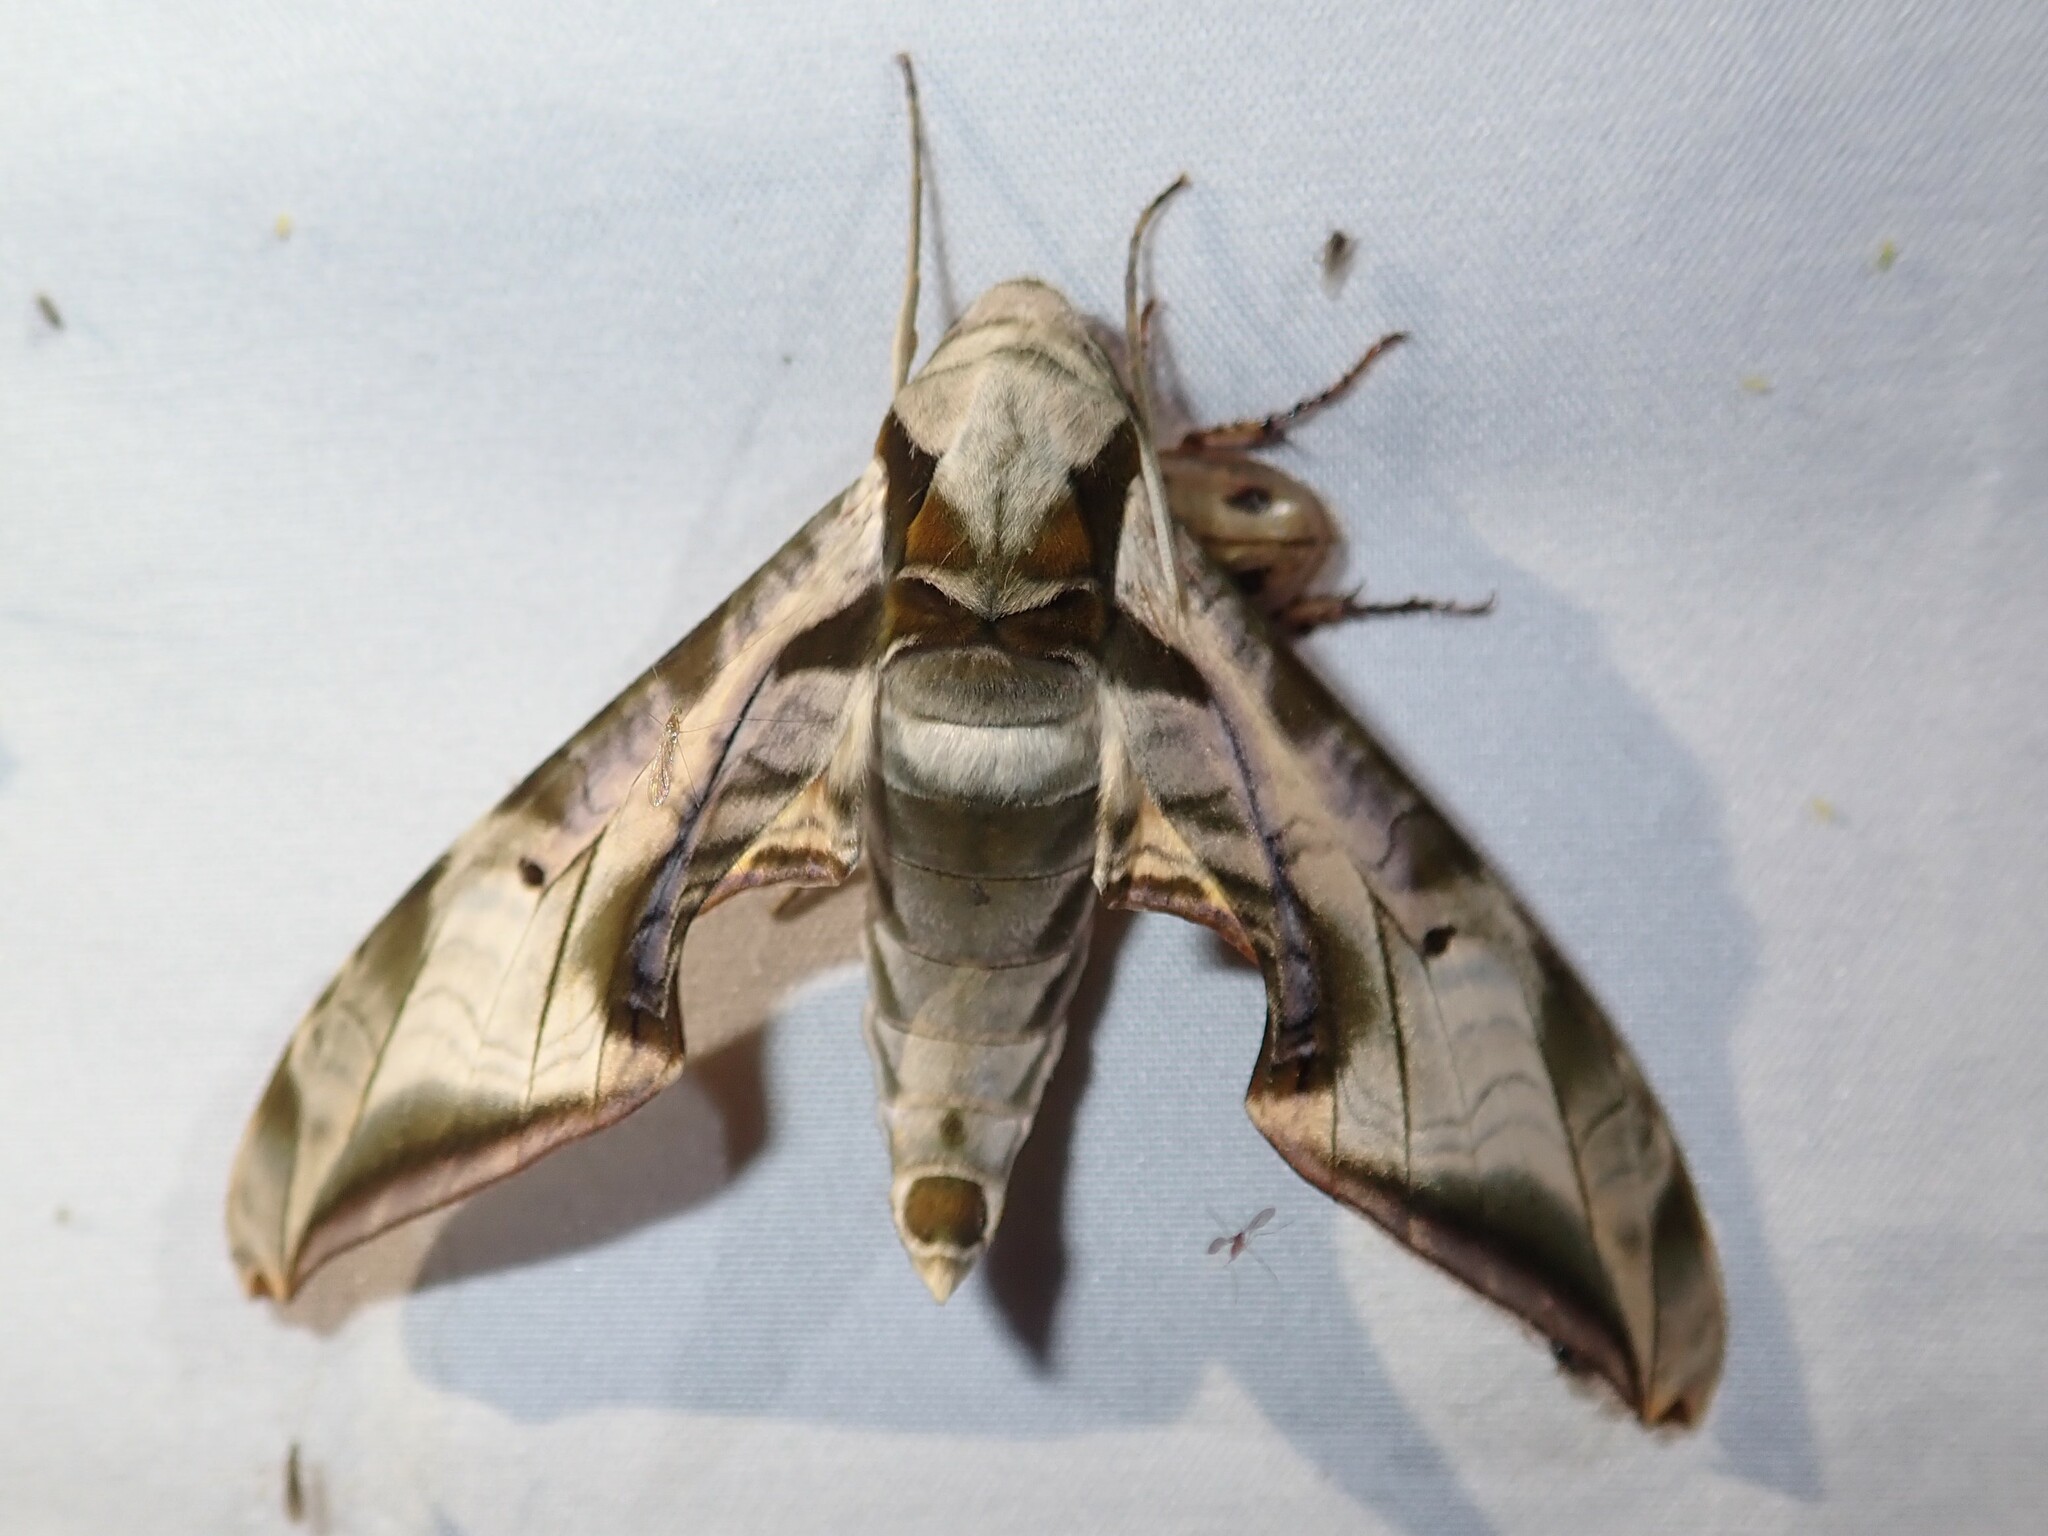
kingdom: Animalia
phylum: Arthropoda
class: Insecta
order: Lepidoptera
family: Sphingidae
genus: Protambulyx
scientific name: Protambulyx eurycles
